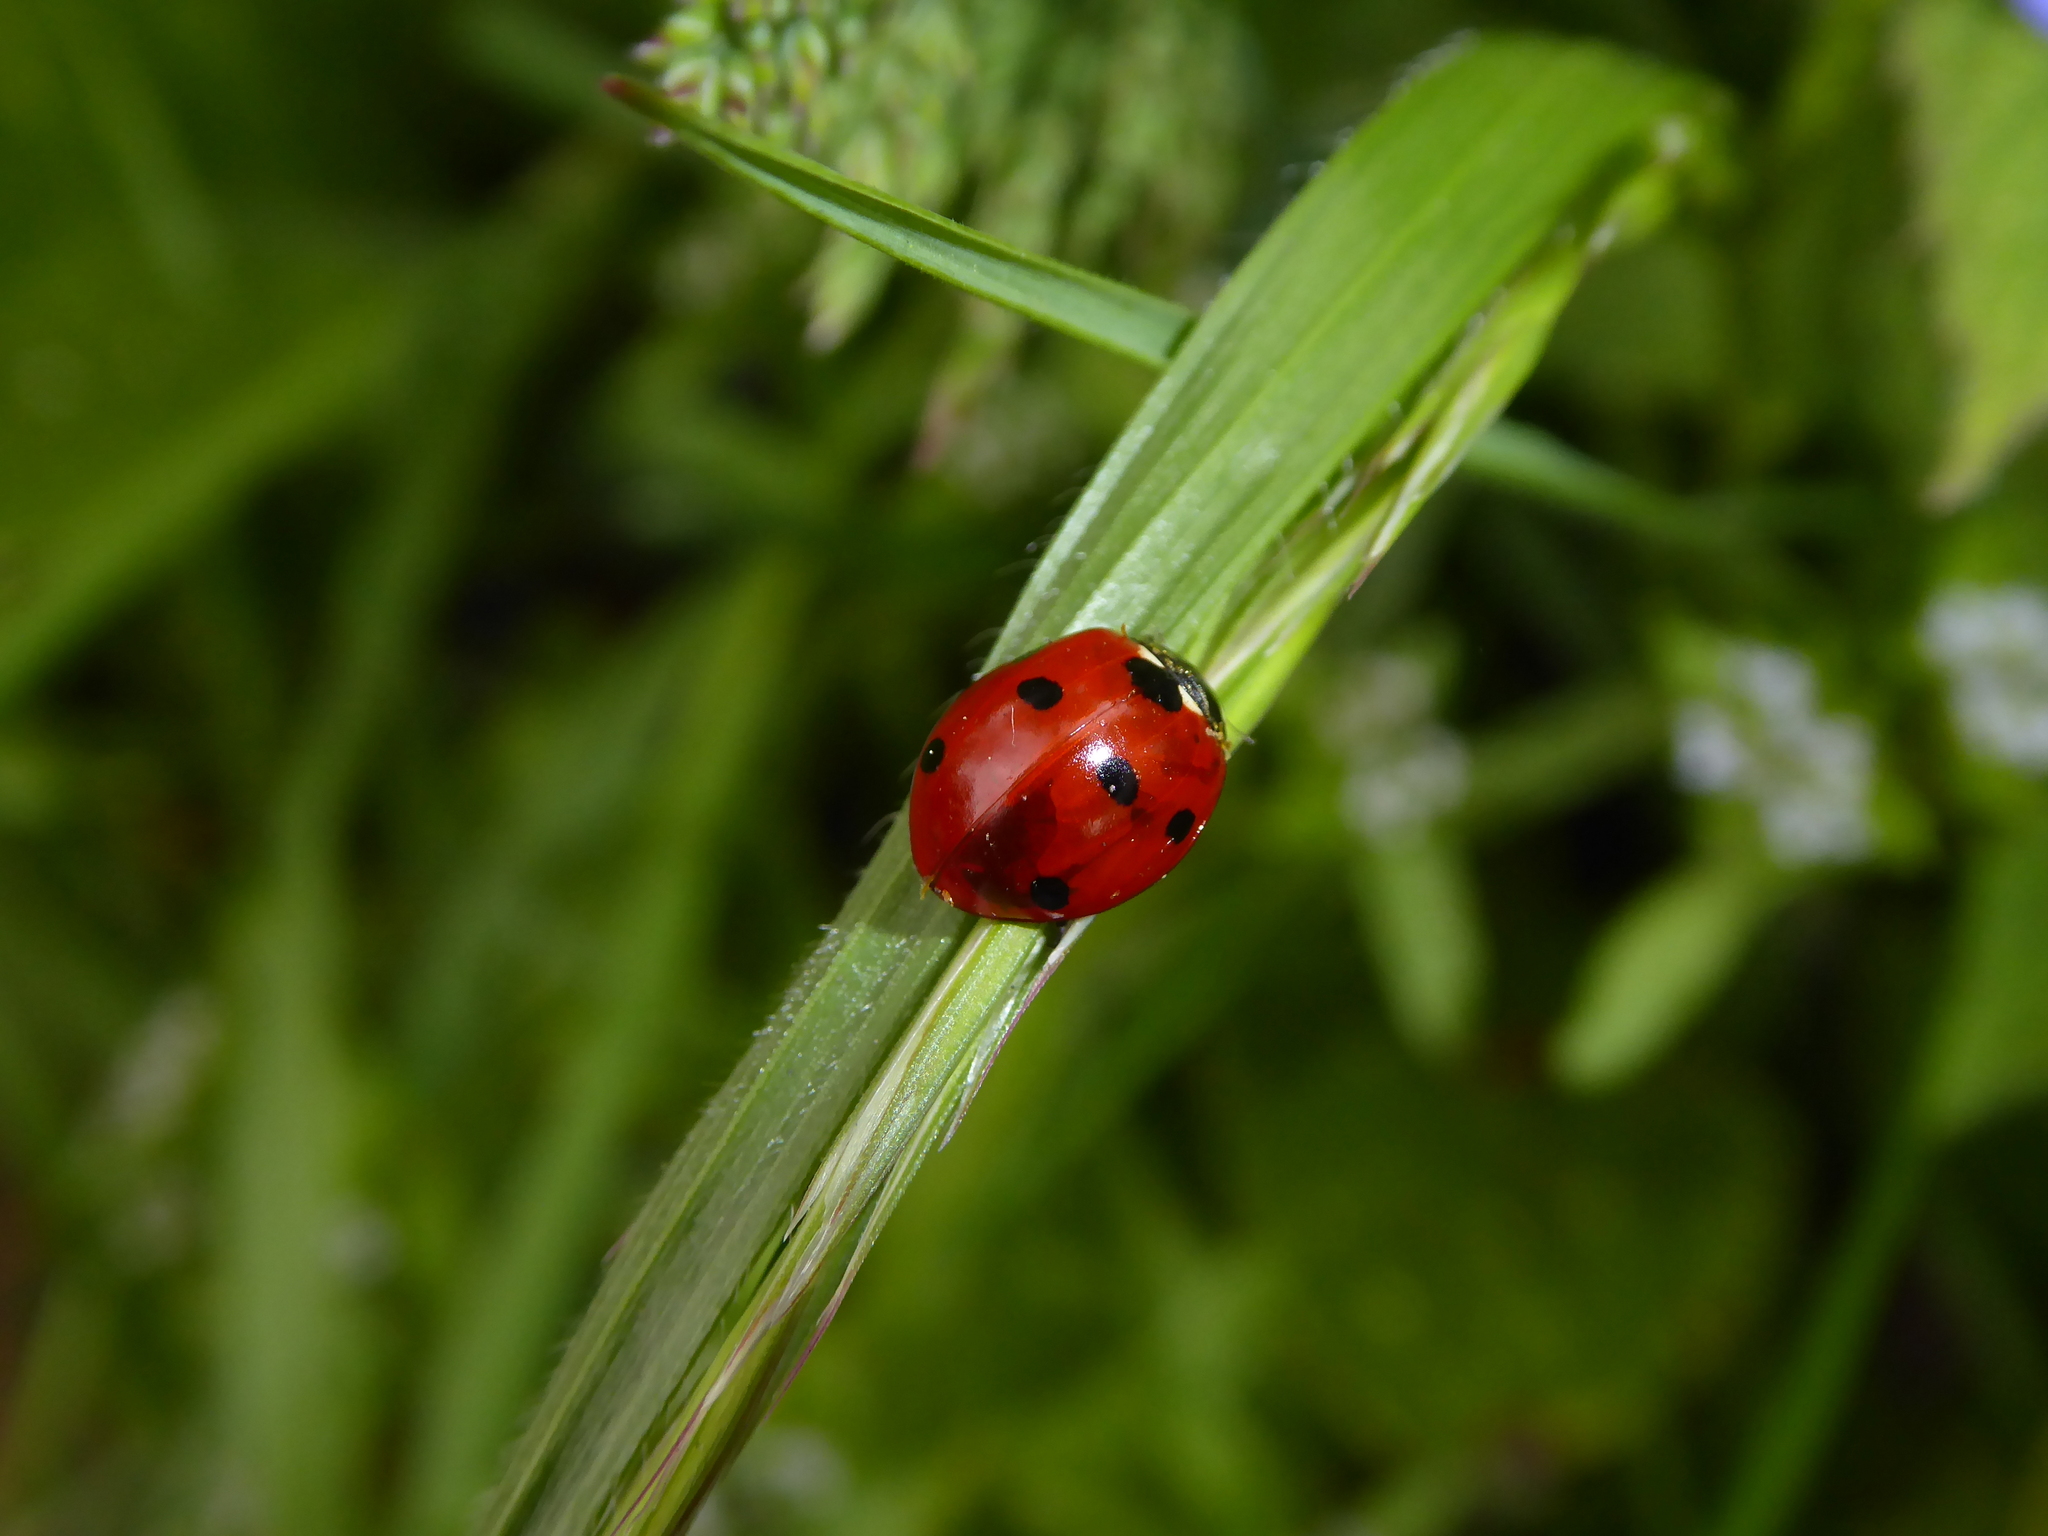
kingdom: Animalia
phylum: Arthropoda
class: Insecta
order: Coleoptera
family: Coccinellidae
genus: Coccinella
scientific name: Coccinella septempunctata
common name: Sevenspotted lady beetle
